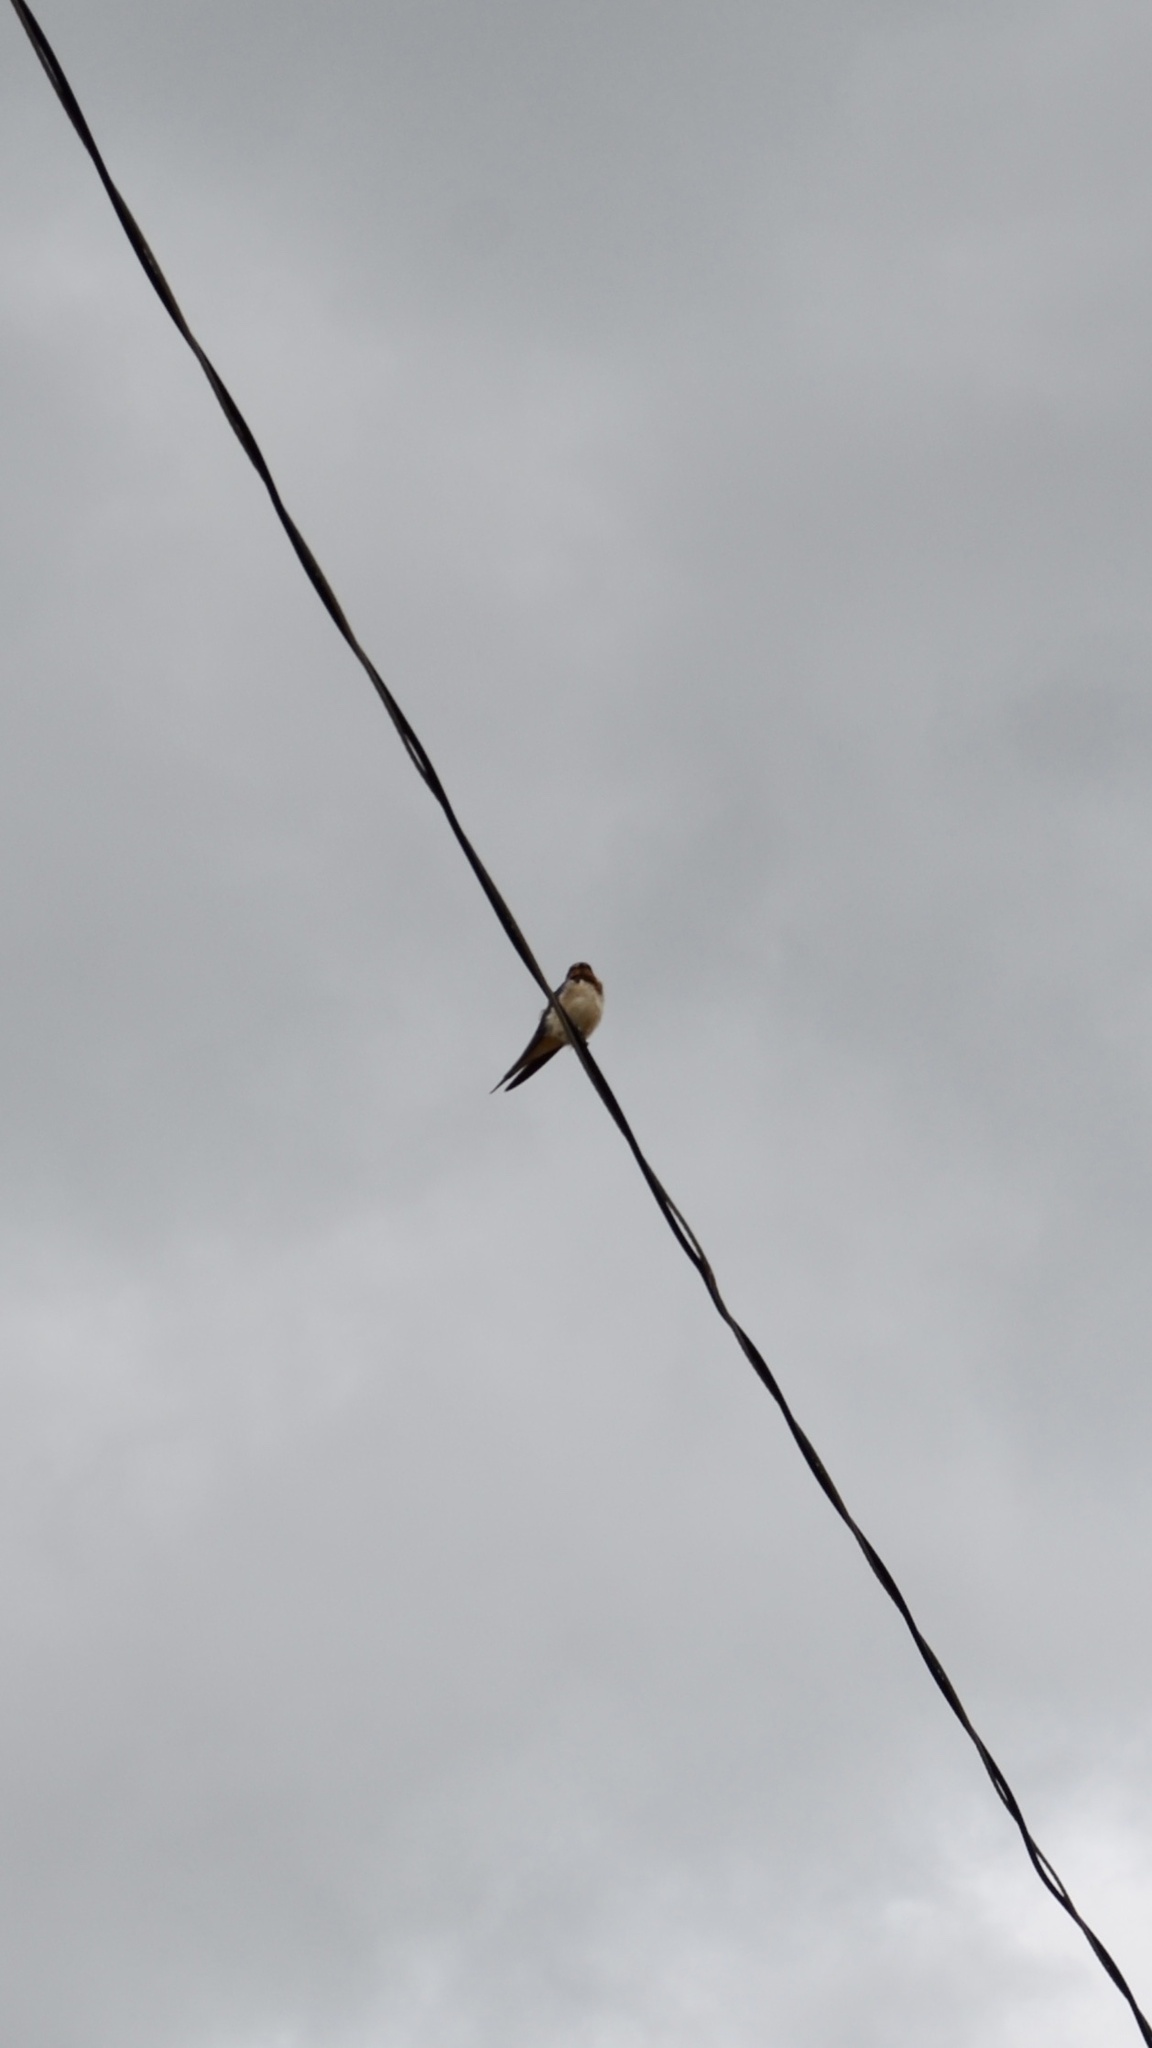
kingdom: Animalia
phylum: Chordata
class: Aves
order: Passeriformes
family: Hirundinidae
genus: Hirundo
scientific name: Hirundo rustica
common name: Barn swallow
